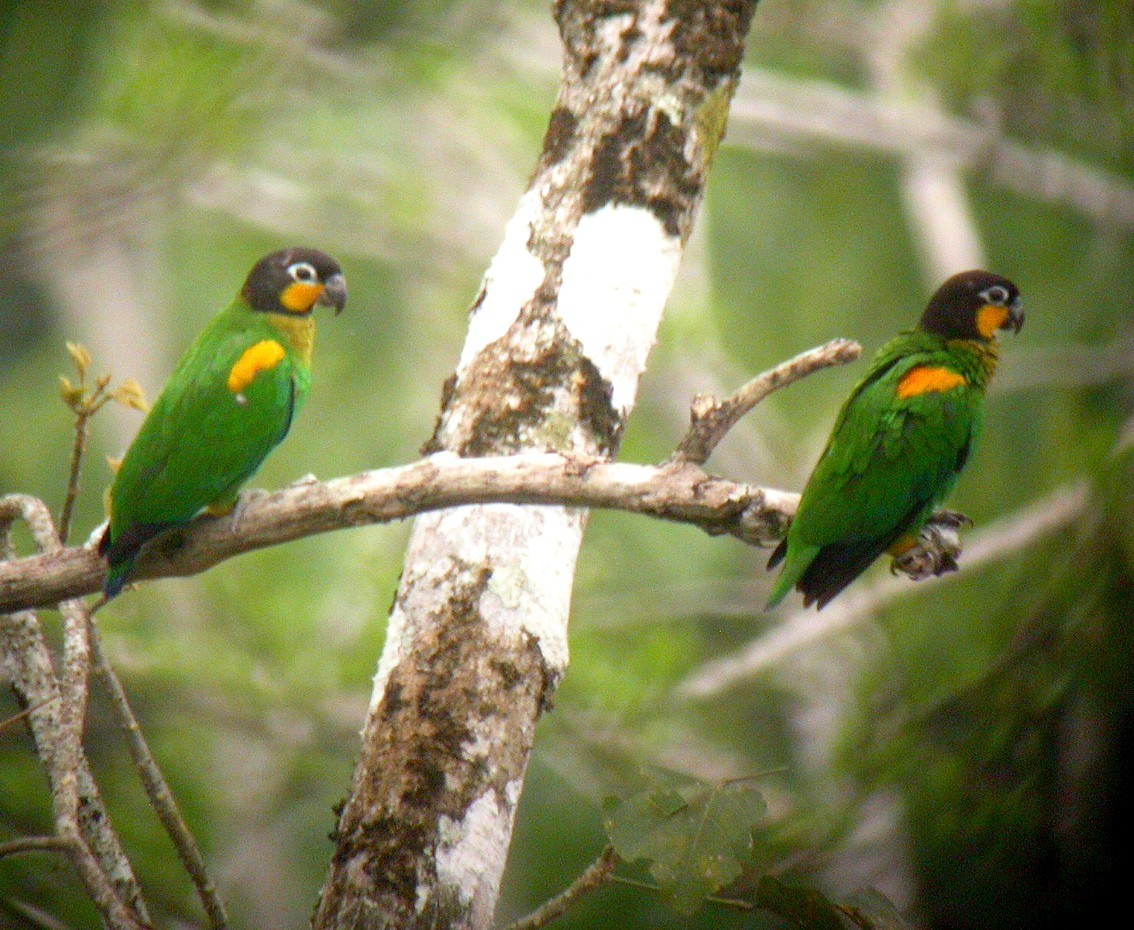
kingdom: Animalia
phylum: Chordata
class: Aves
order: Psittaciformes
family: Psittacidae
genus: Pionopsitta
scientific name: Pionopsitta barrabandi
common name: Orange-cheeked parrot
